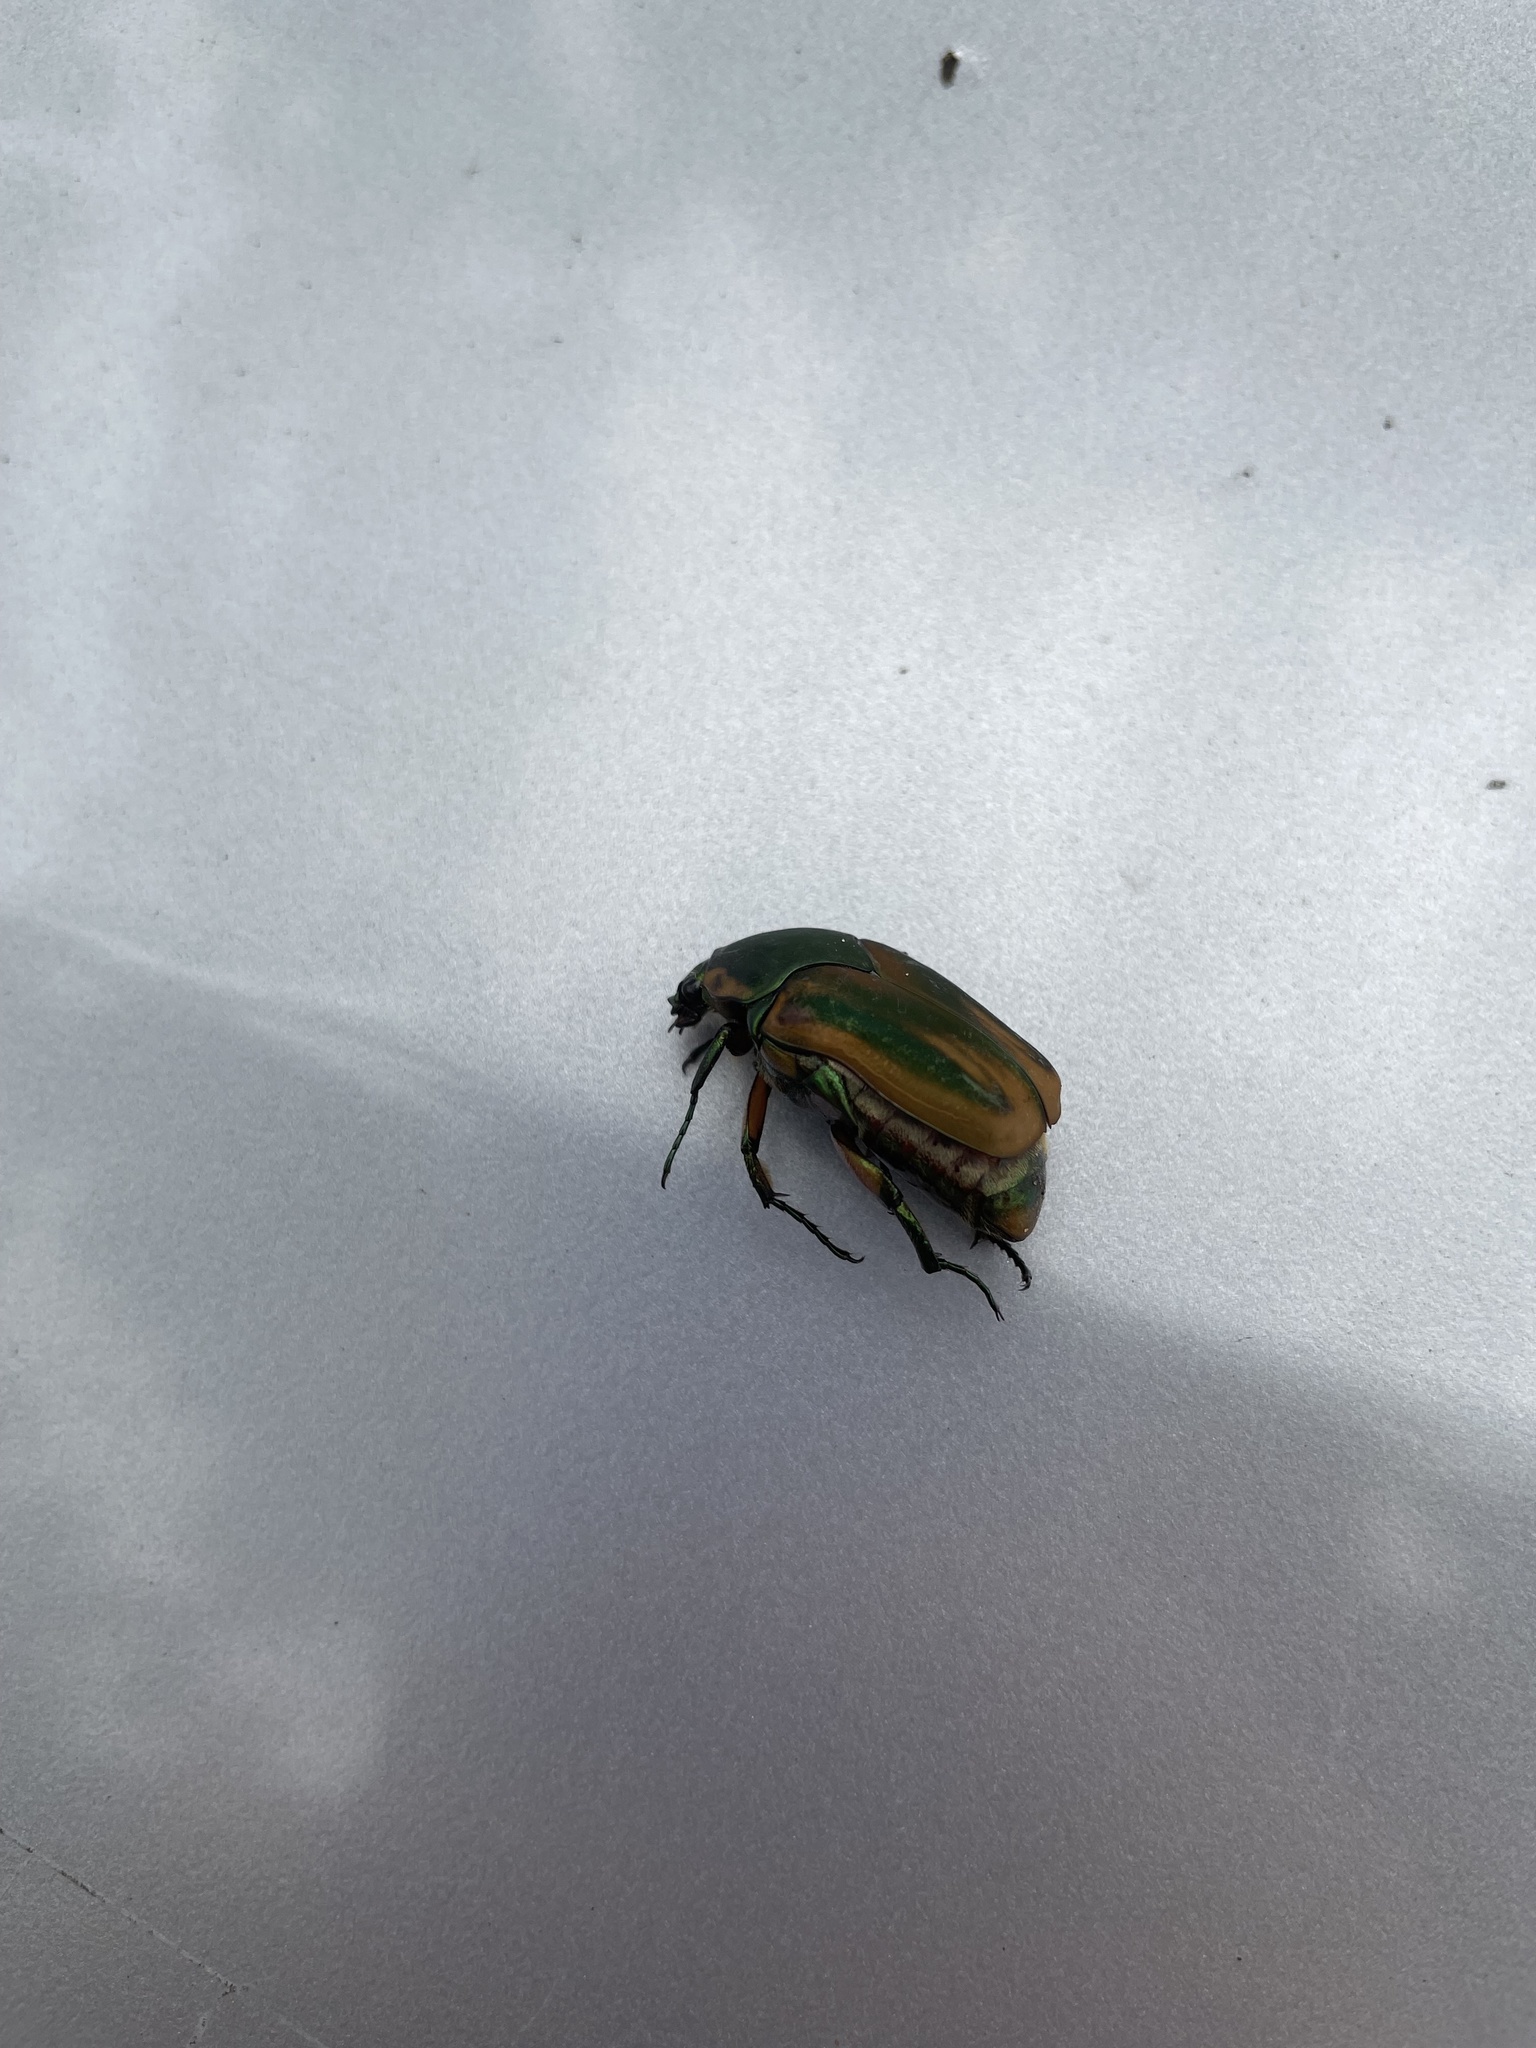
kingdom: Animalia
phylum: Arthropoda
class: Insecta
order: Coleoptera
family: Scarabaeidae
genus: Cotinis
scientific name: Cotinis nitida
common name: Common green june beetle
